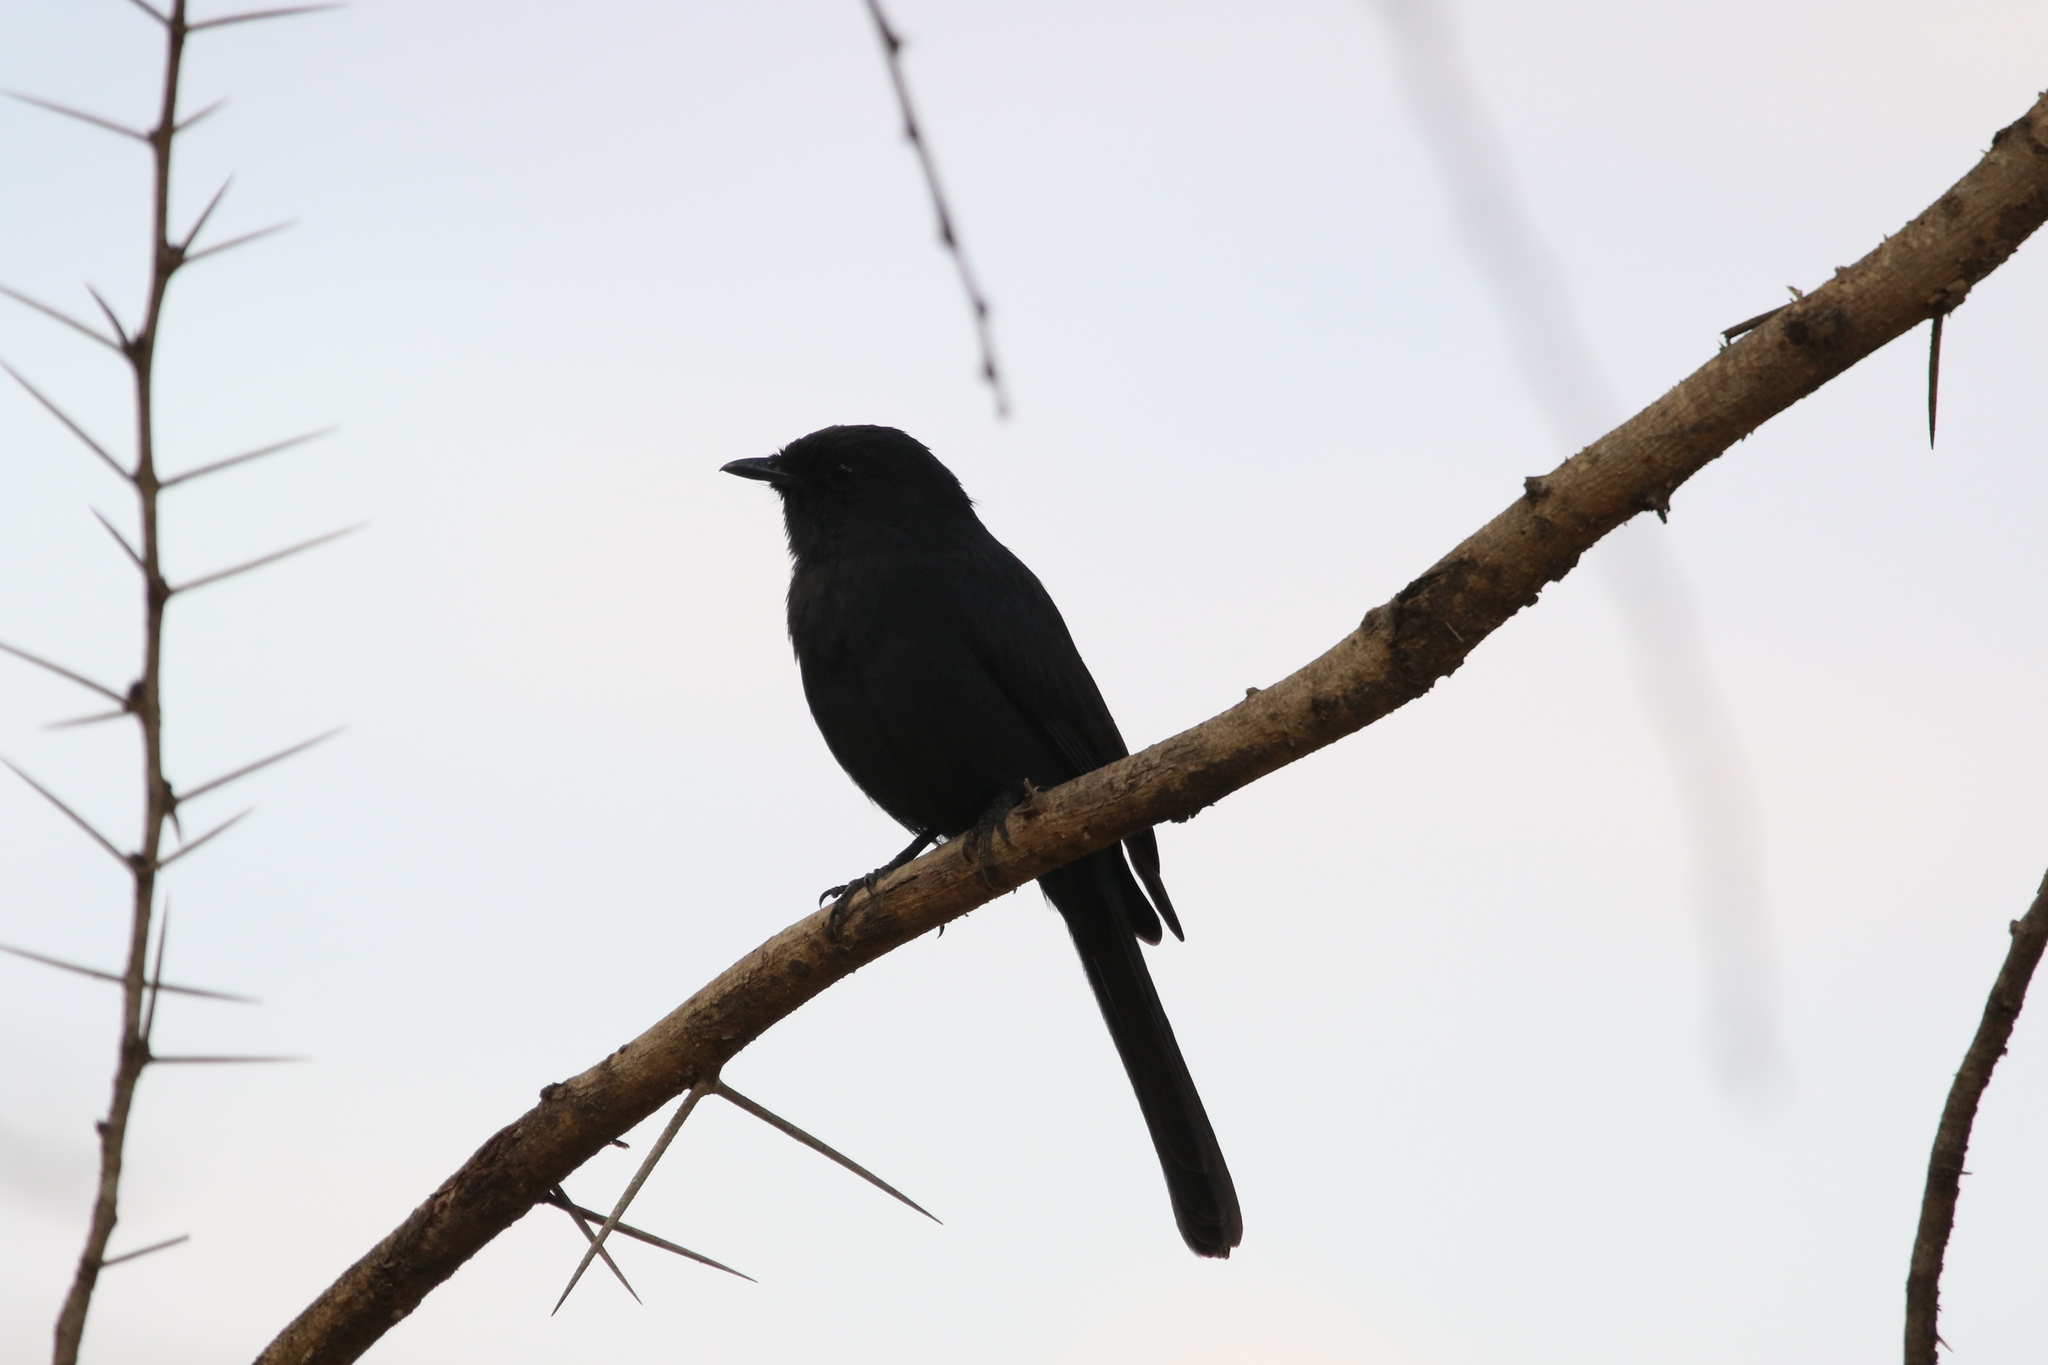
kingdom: Animalia
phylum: Chordata
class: Aves
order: Passeriformes
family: Muscicapidae
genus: Melaenornis
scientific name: Melaenornis edolioides
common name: Northern black flycatcher
